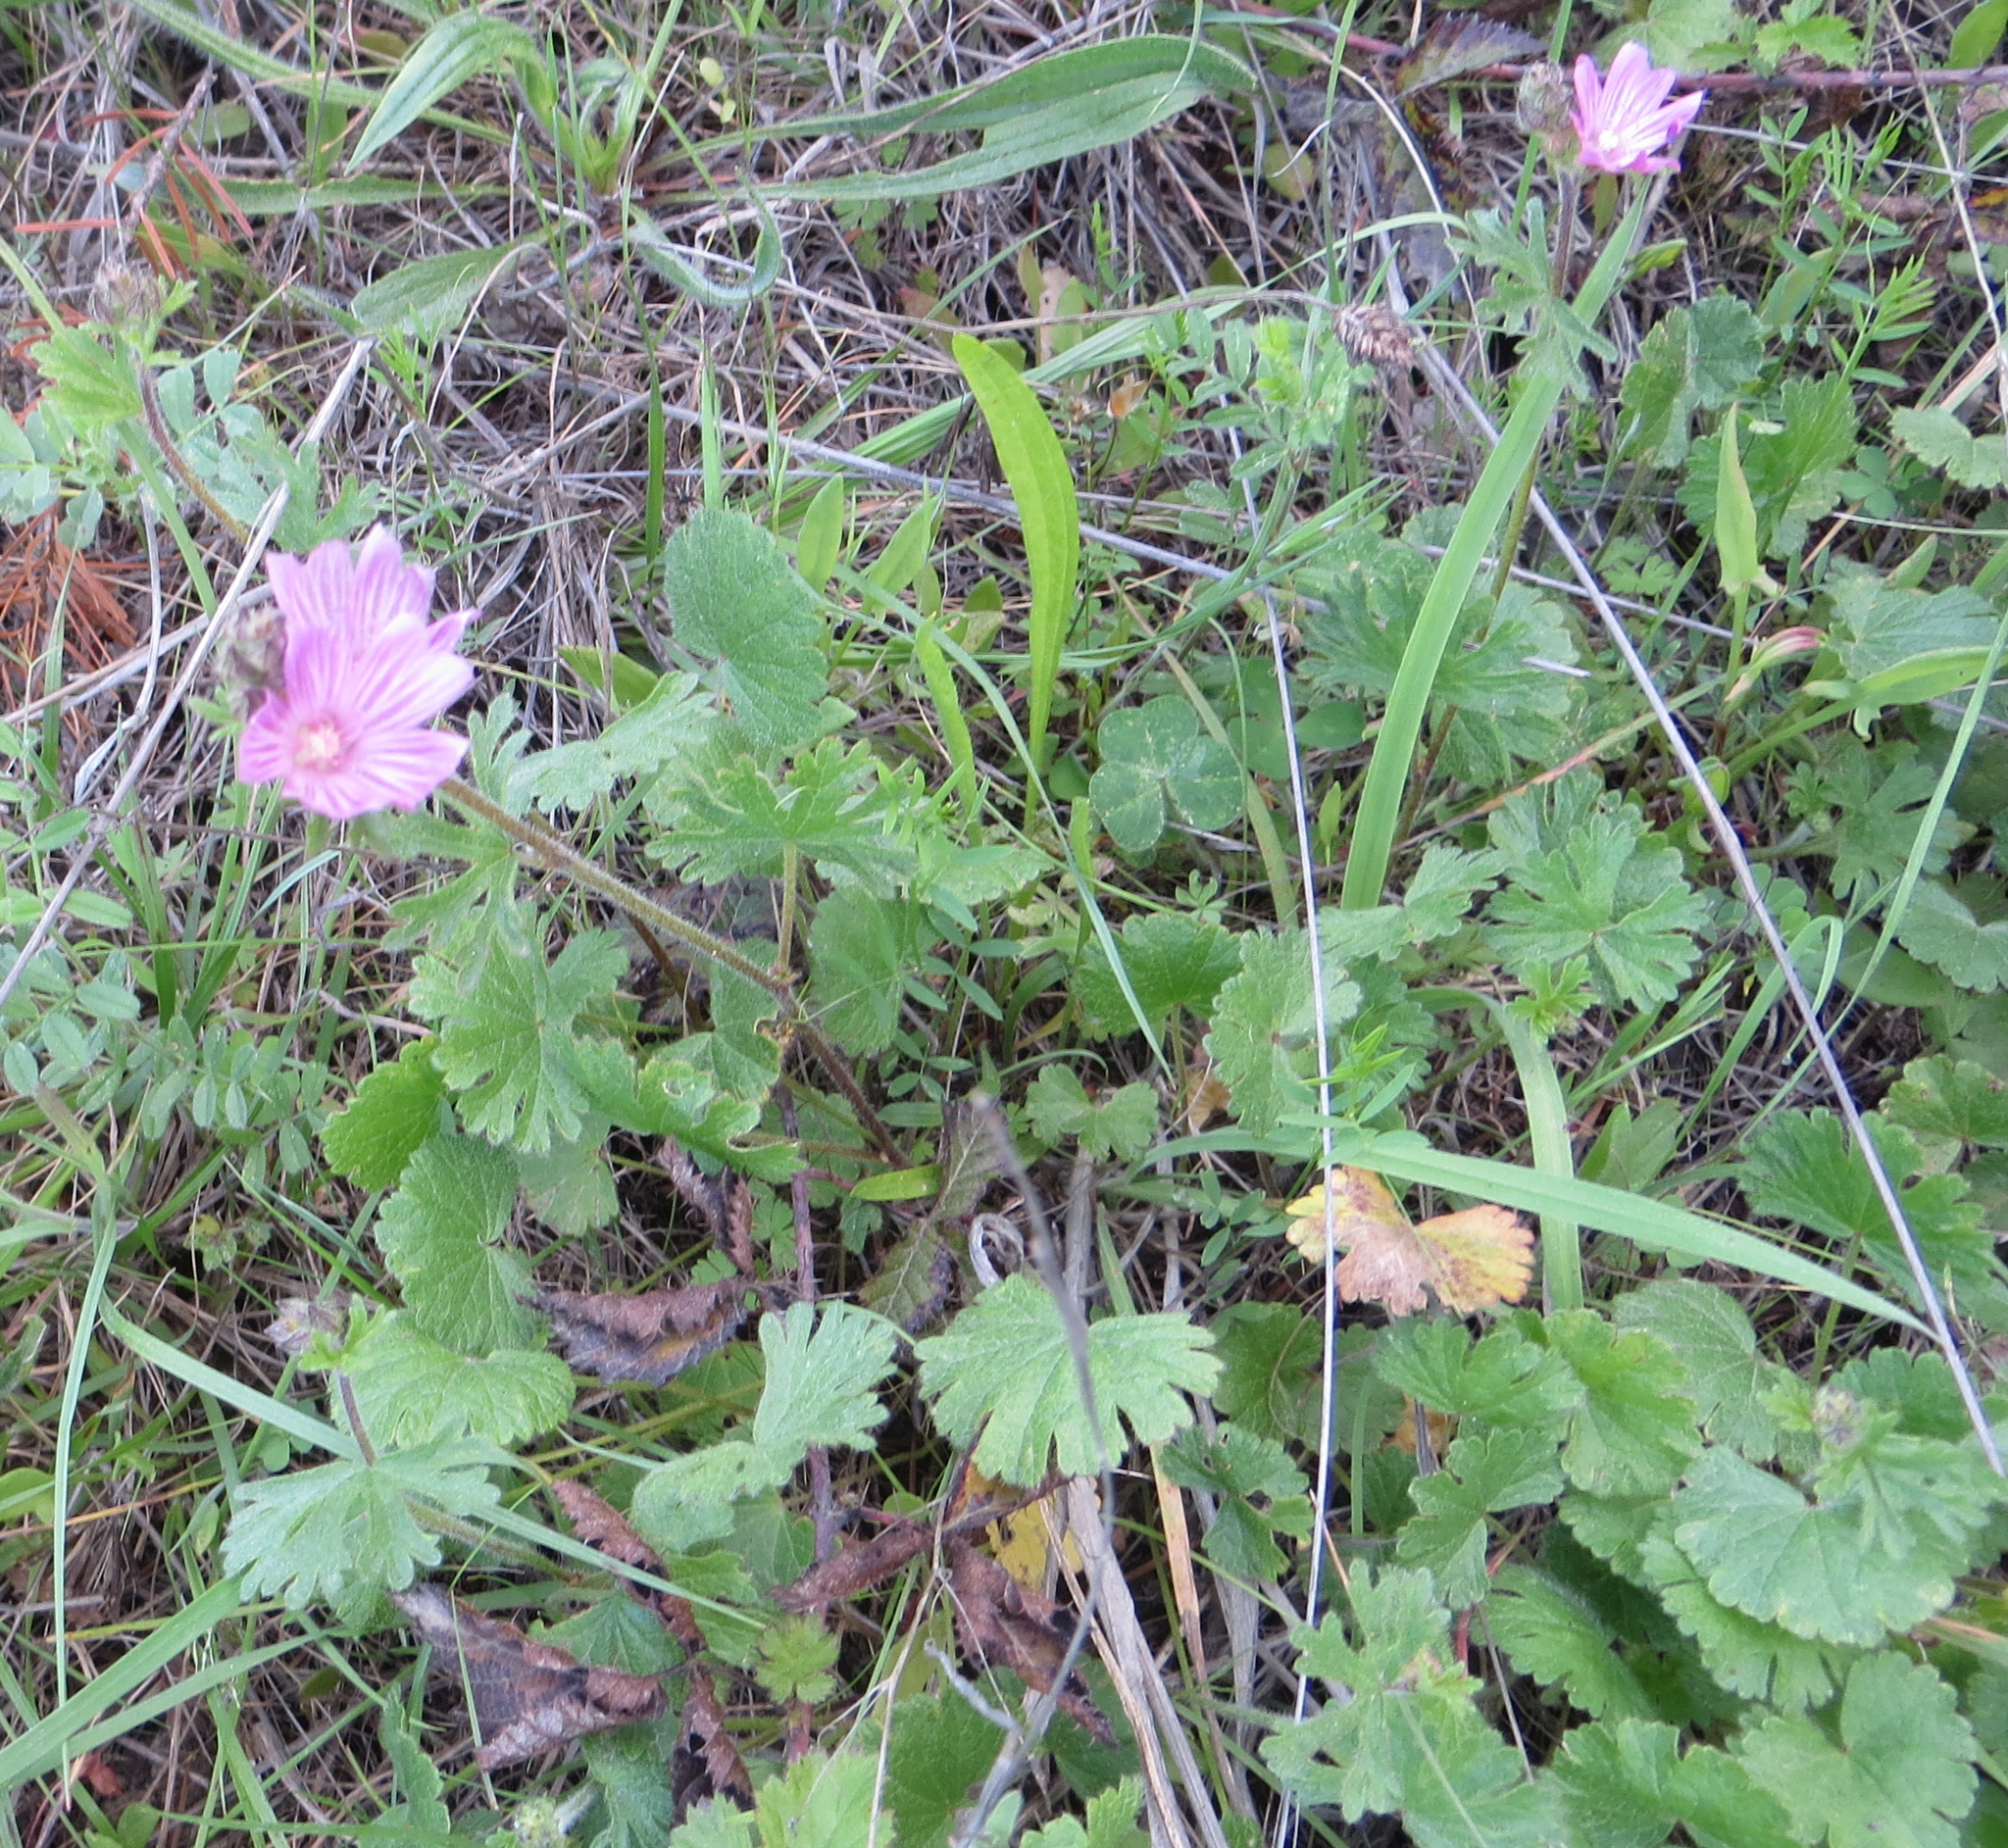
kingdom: Plantae
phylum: Tracheophyta
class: Magnoliopsida
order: Malvales
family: Malvaceae
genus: Sidalcea
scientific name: Sidalcea malviflora
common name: Greek mallow
